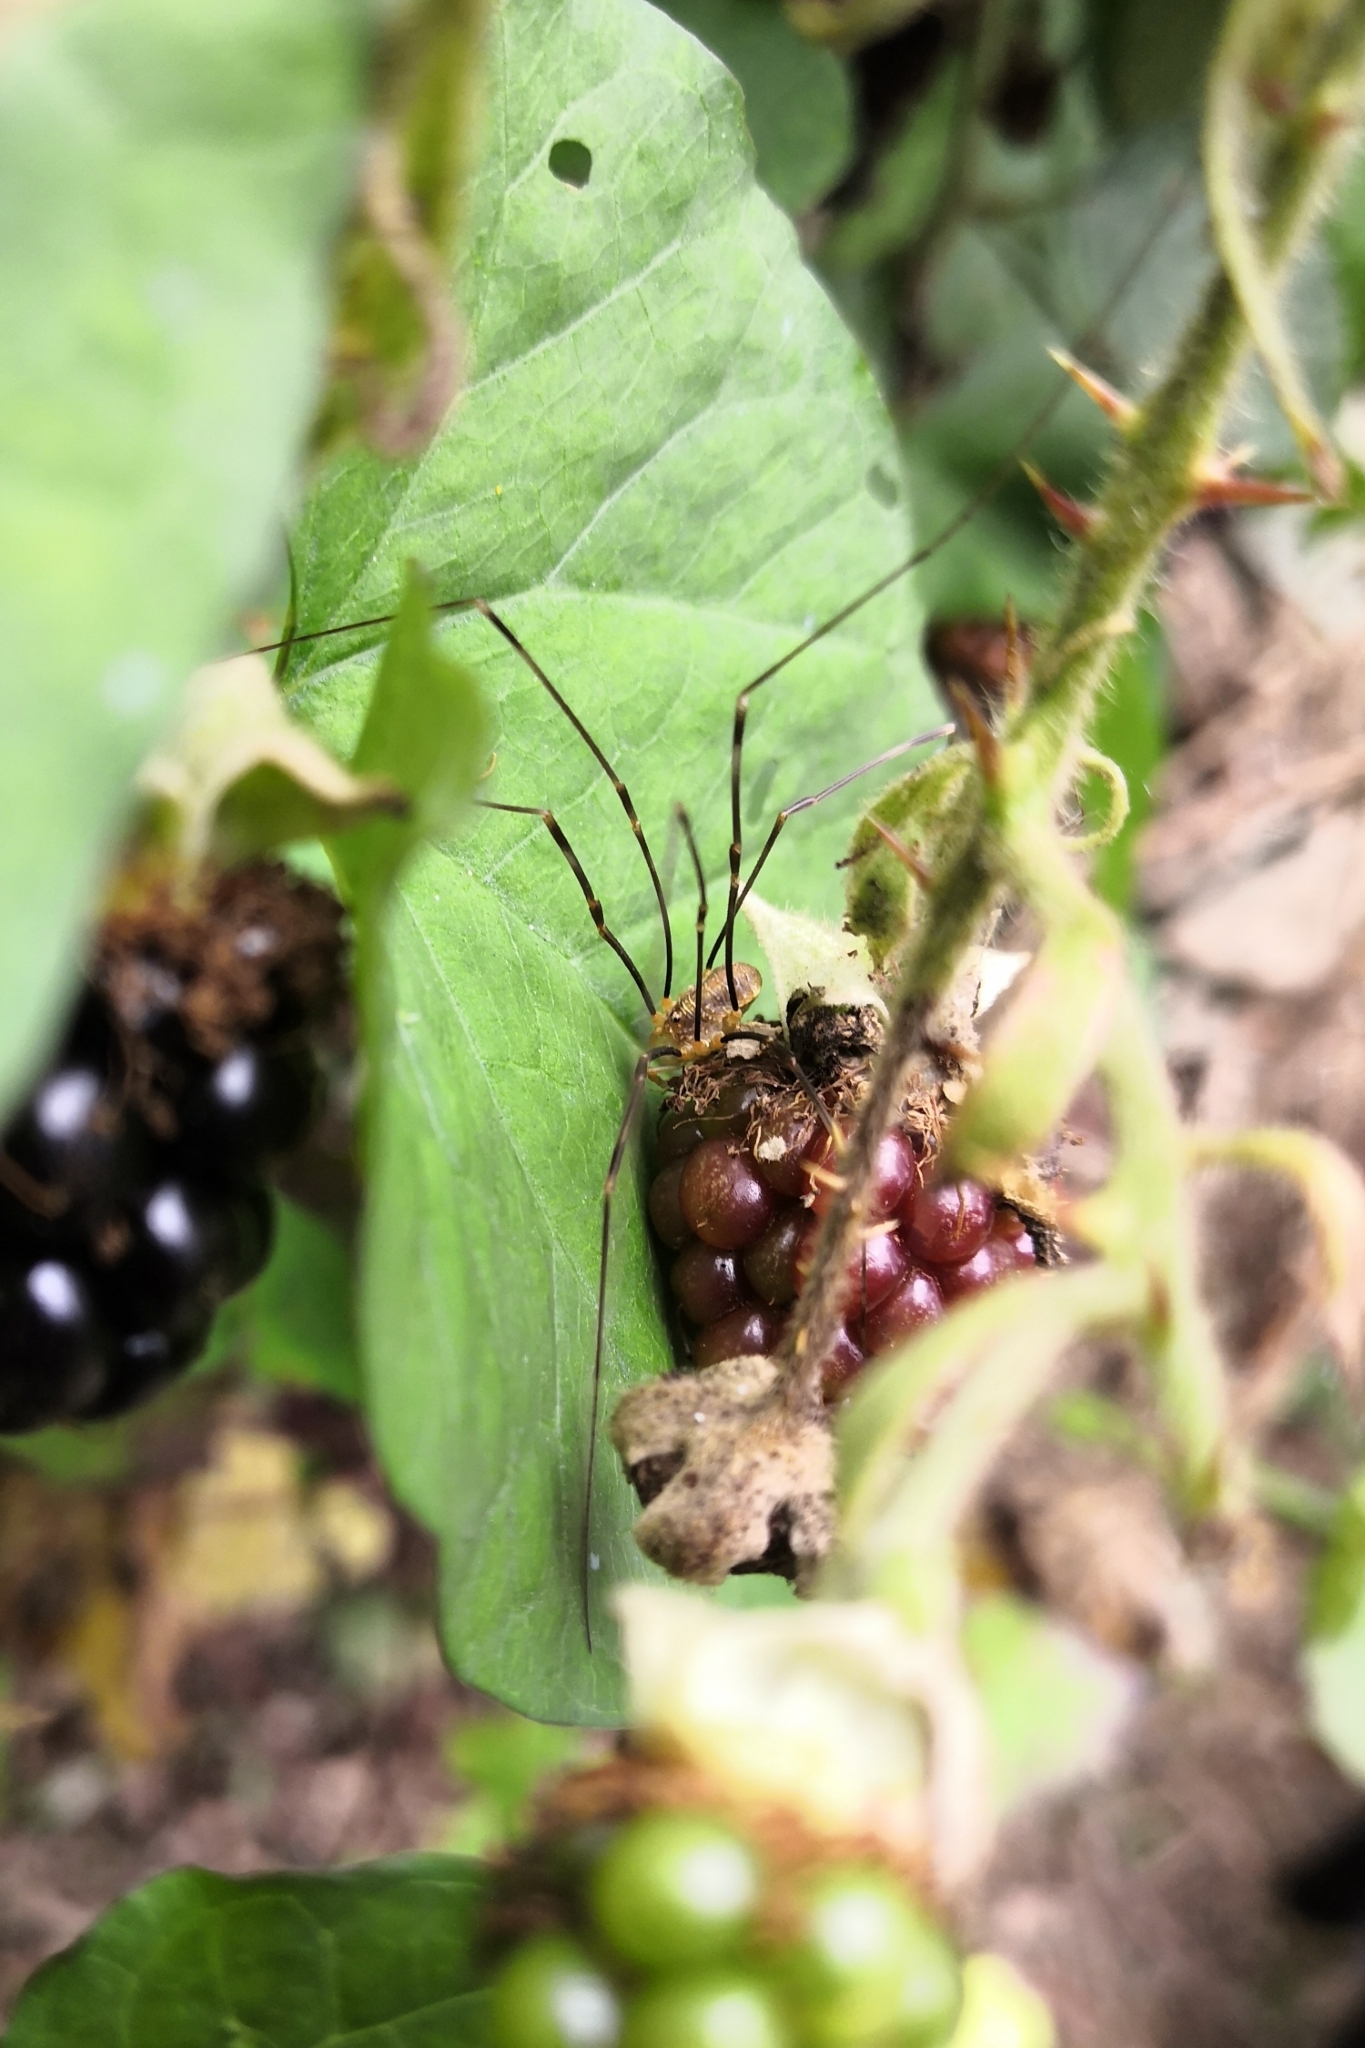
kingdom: Animalia
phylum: Arthropoda
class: Arachnida
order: Opiliones
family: Phalangiidae
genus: Opilio
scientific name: Opilio canestrinii
